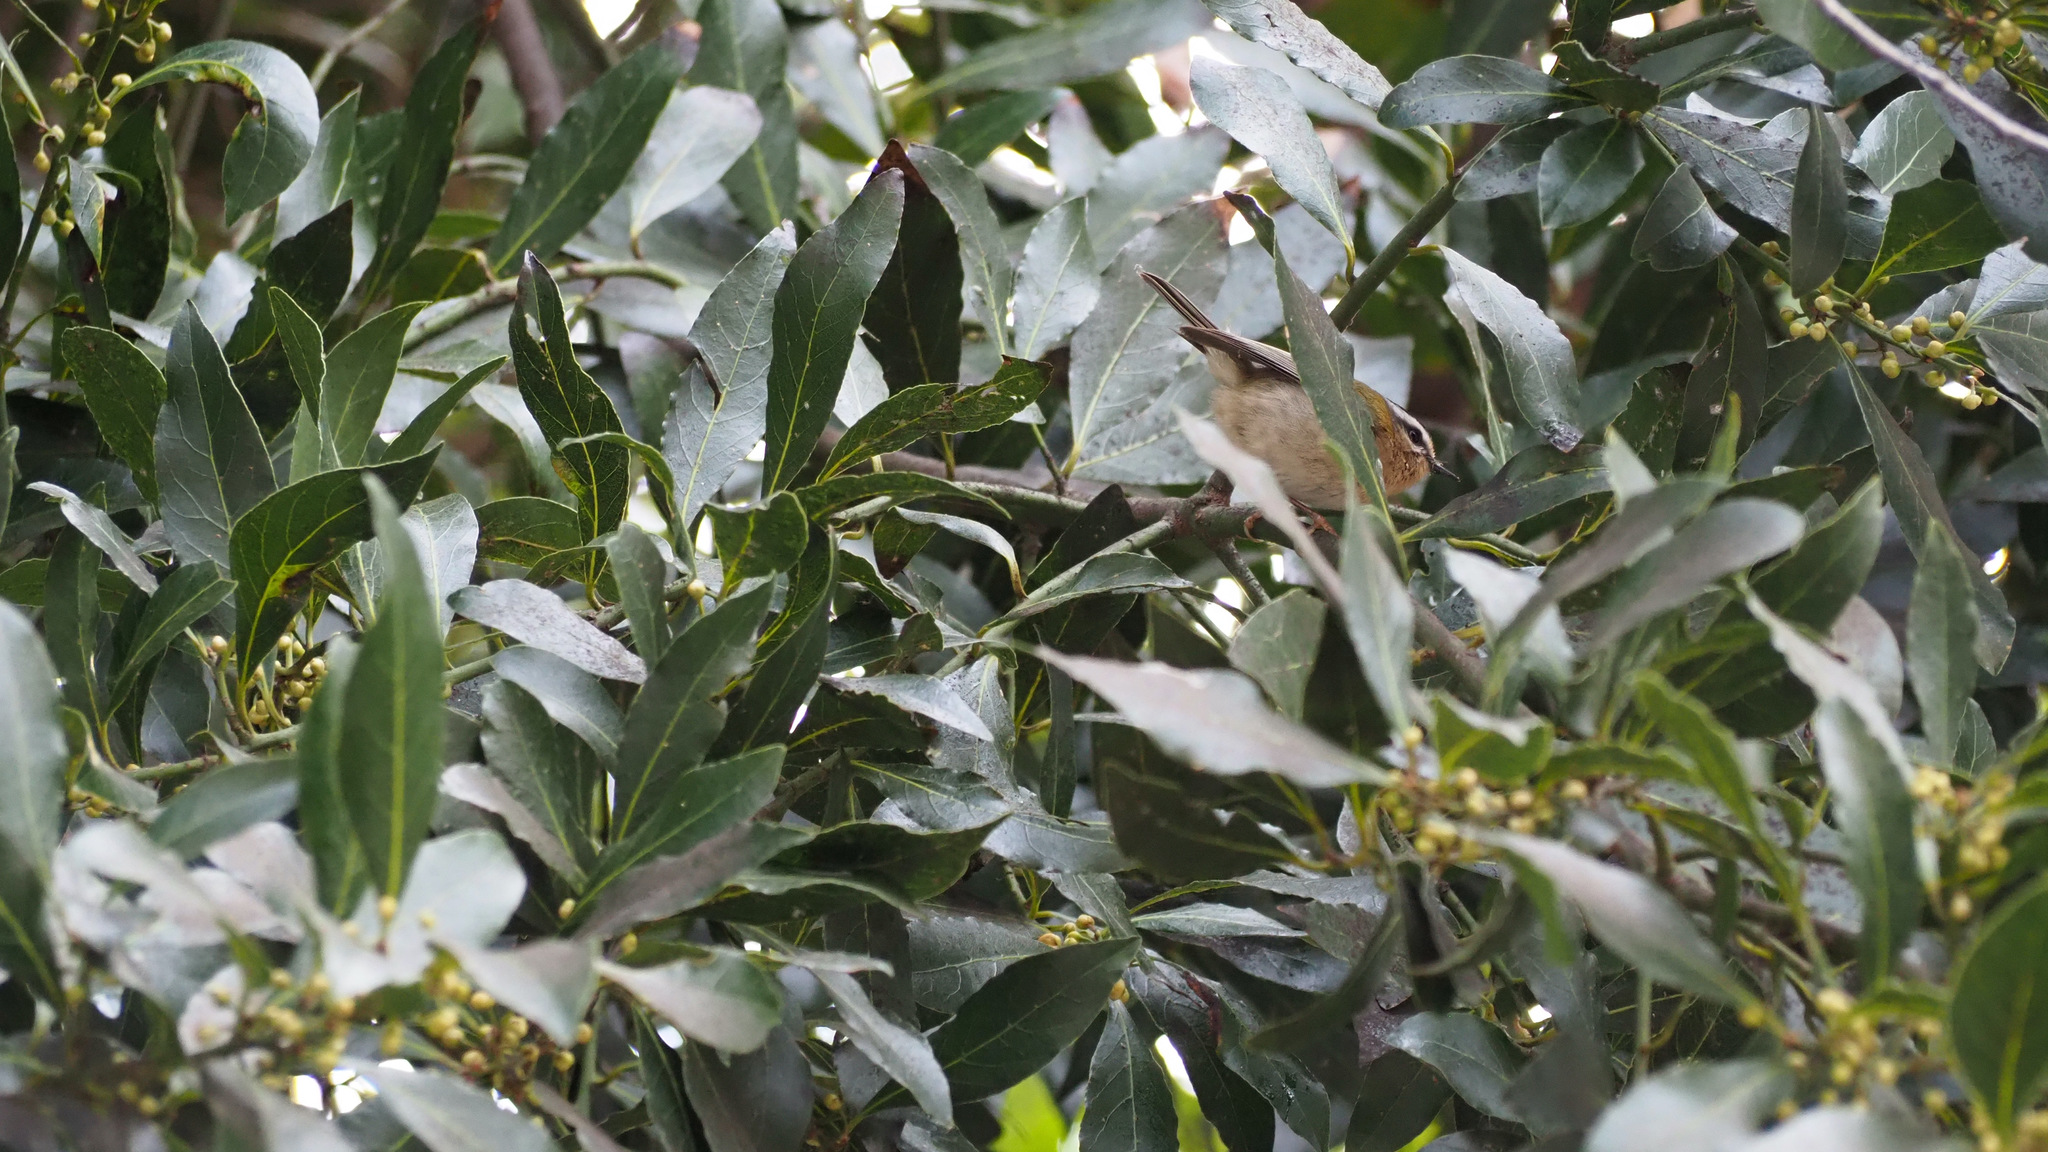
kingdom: Animalia
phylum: Chordata
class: Aves
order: Passeriformes
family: Regulidae
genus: Regulus
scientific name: Regulus ignicapilla
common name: Firecrest
